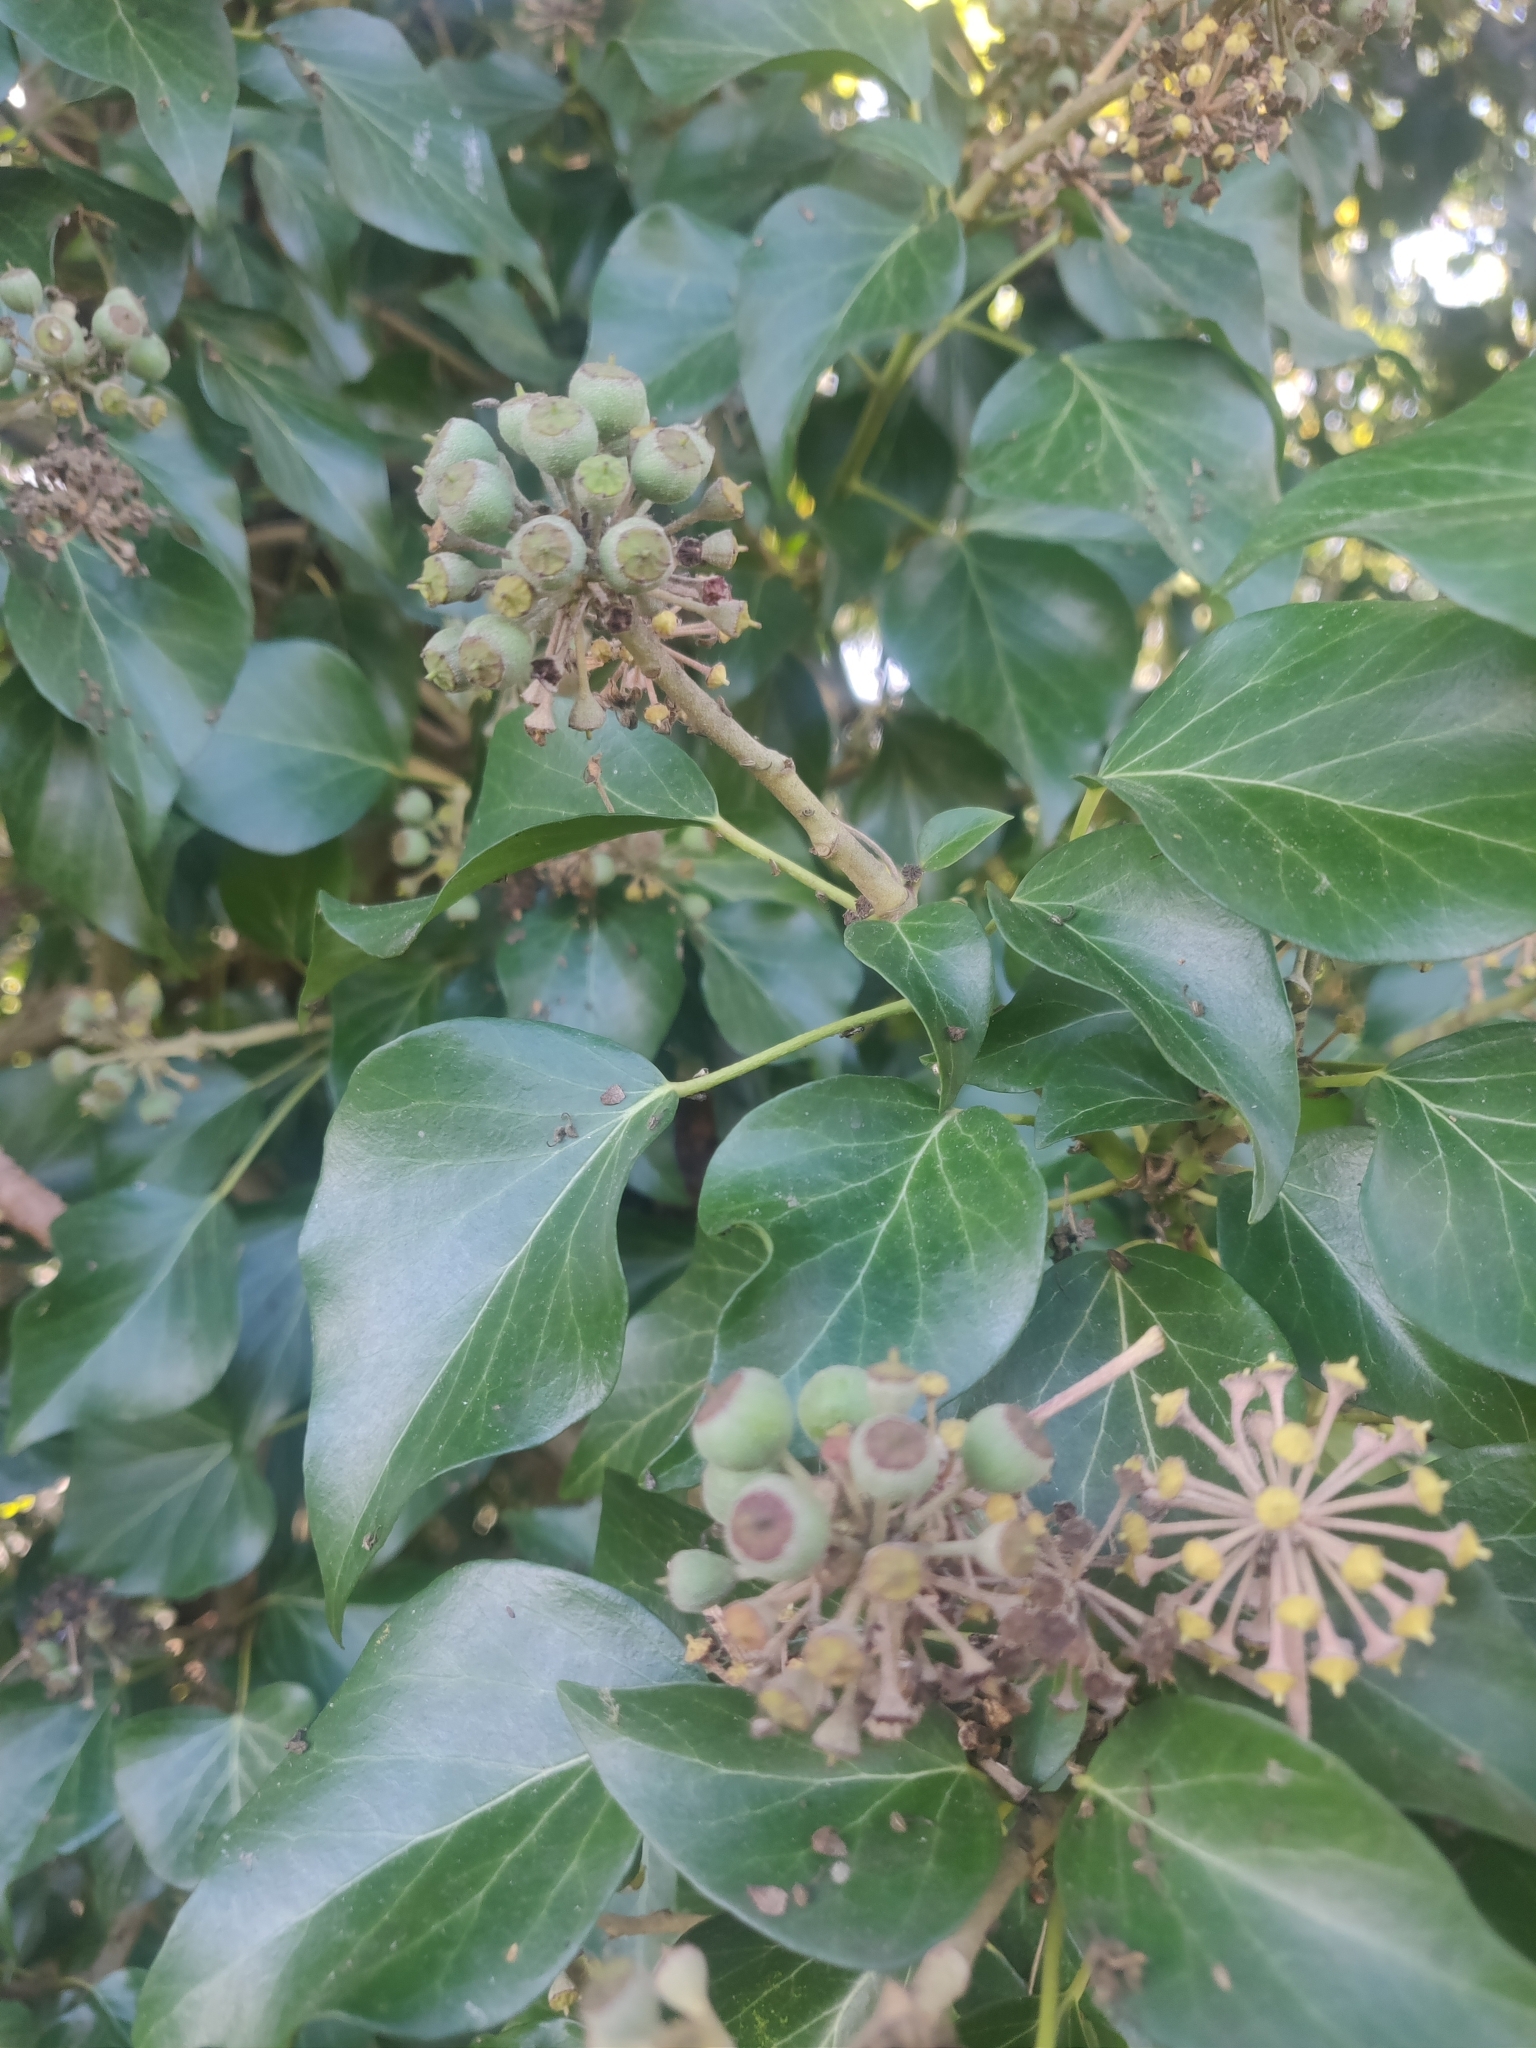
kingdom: Plantae
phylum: Tracheophyta
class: Magnoliopsida
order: Apiales
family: Araliaceae
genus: Hedera
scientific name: Hedera helix
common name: Ivy
